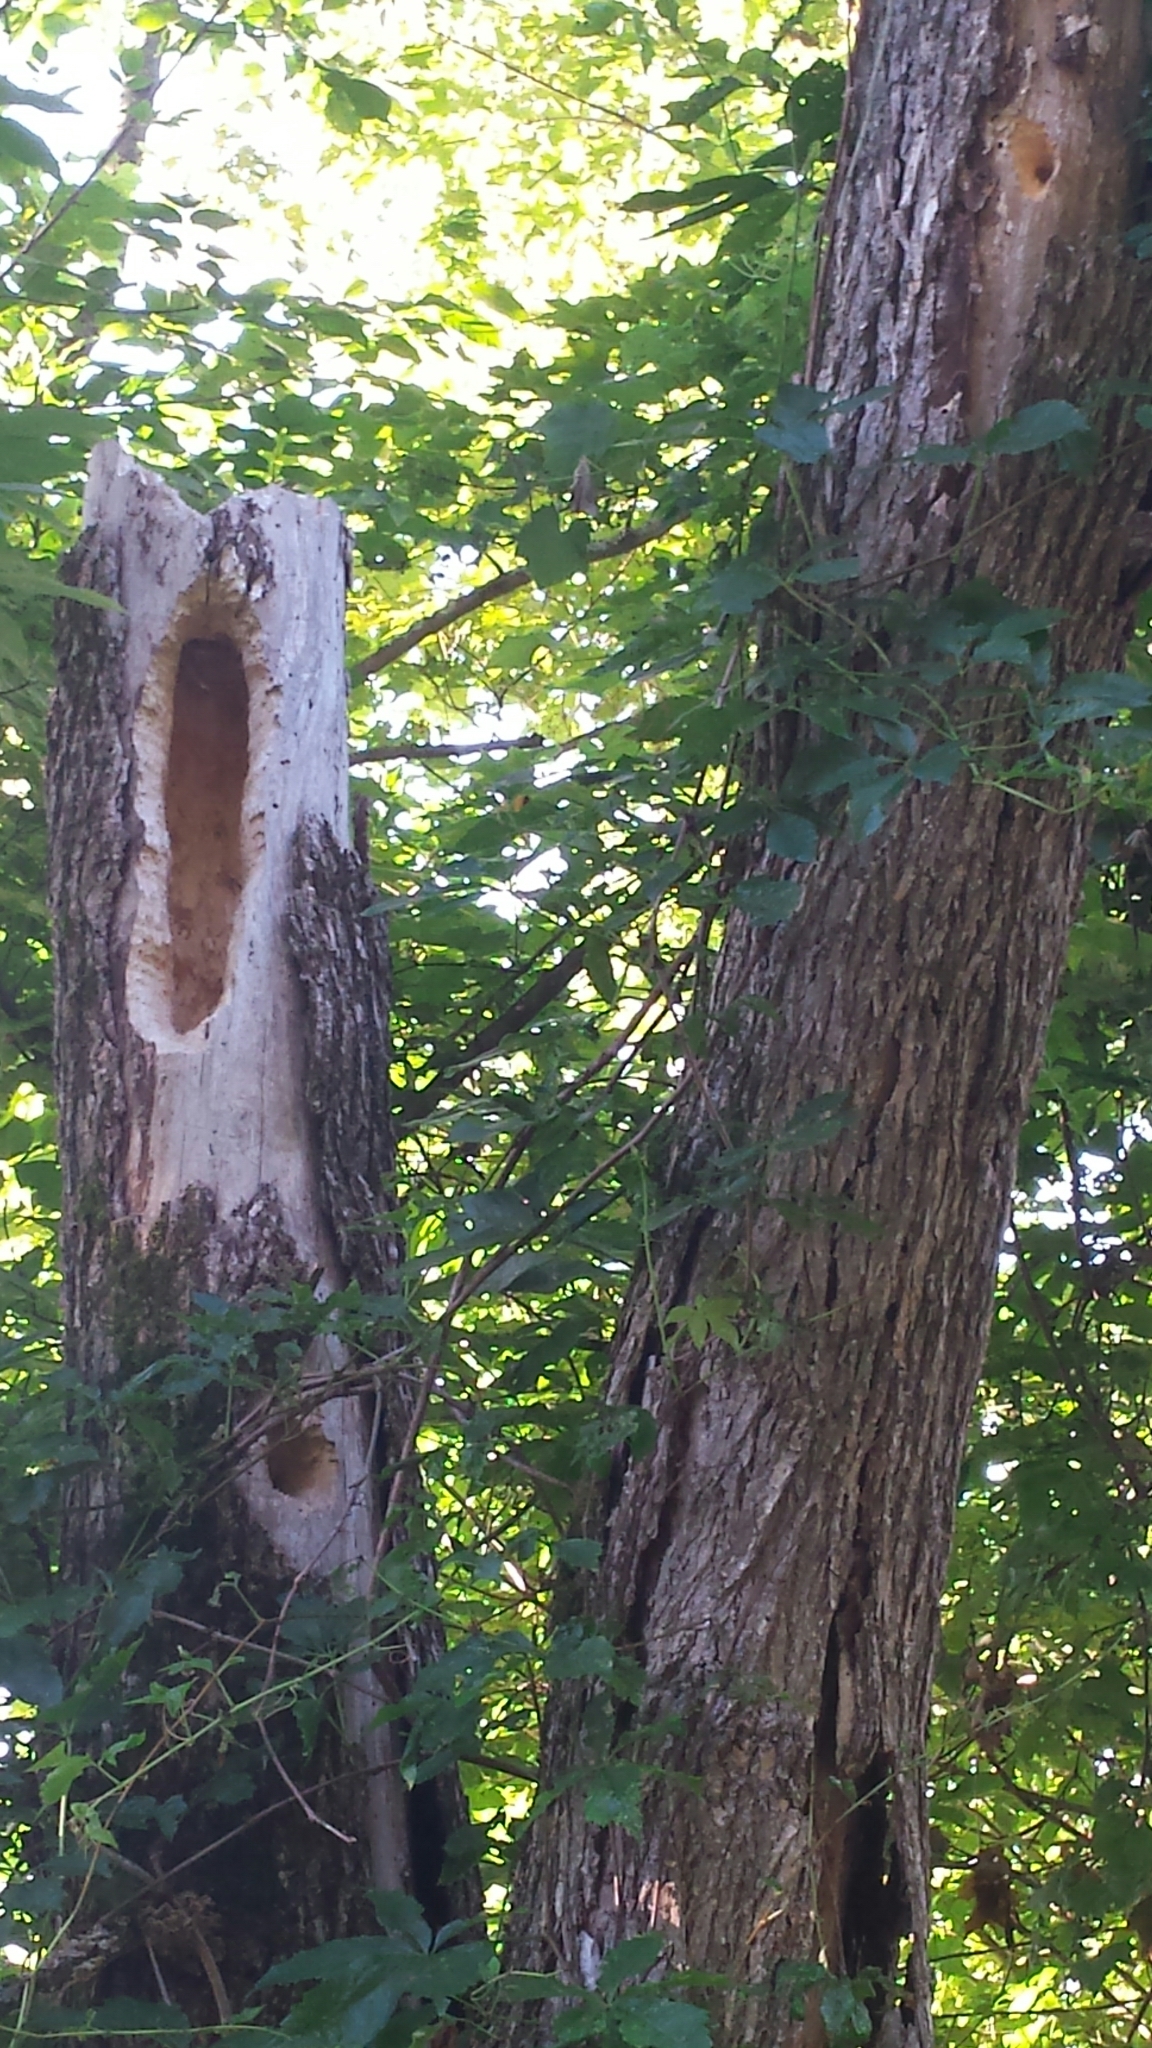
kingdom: Animalia
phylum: Chordata
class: Aves
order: Piciformes
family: Picidae
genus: Dryocopus
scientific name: Dryocopus pileatus
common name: Pileated woodpecker
